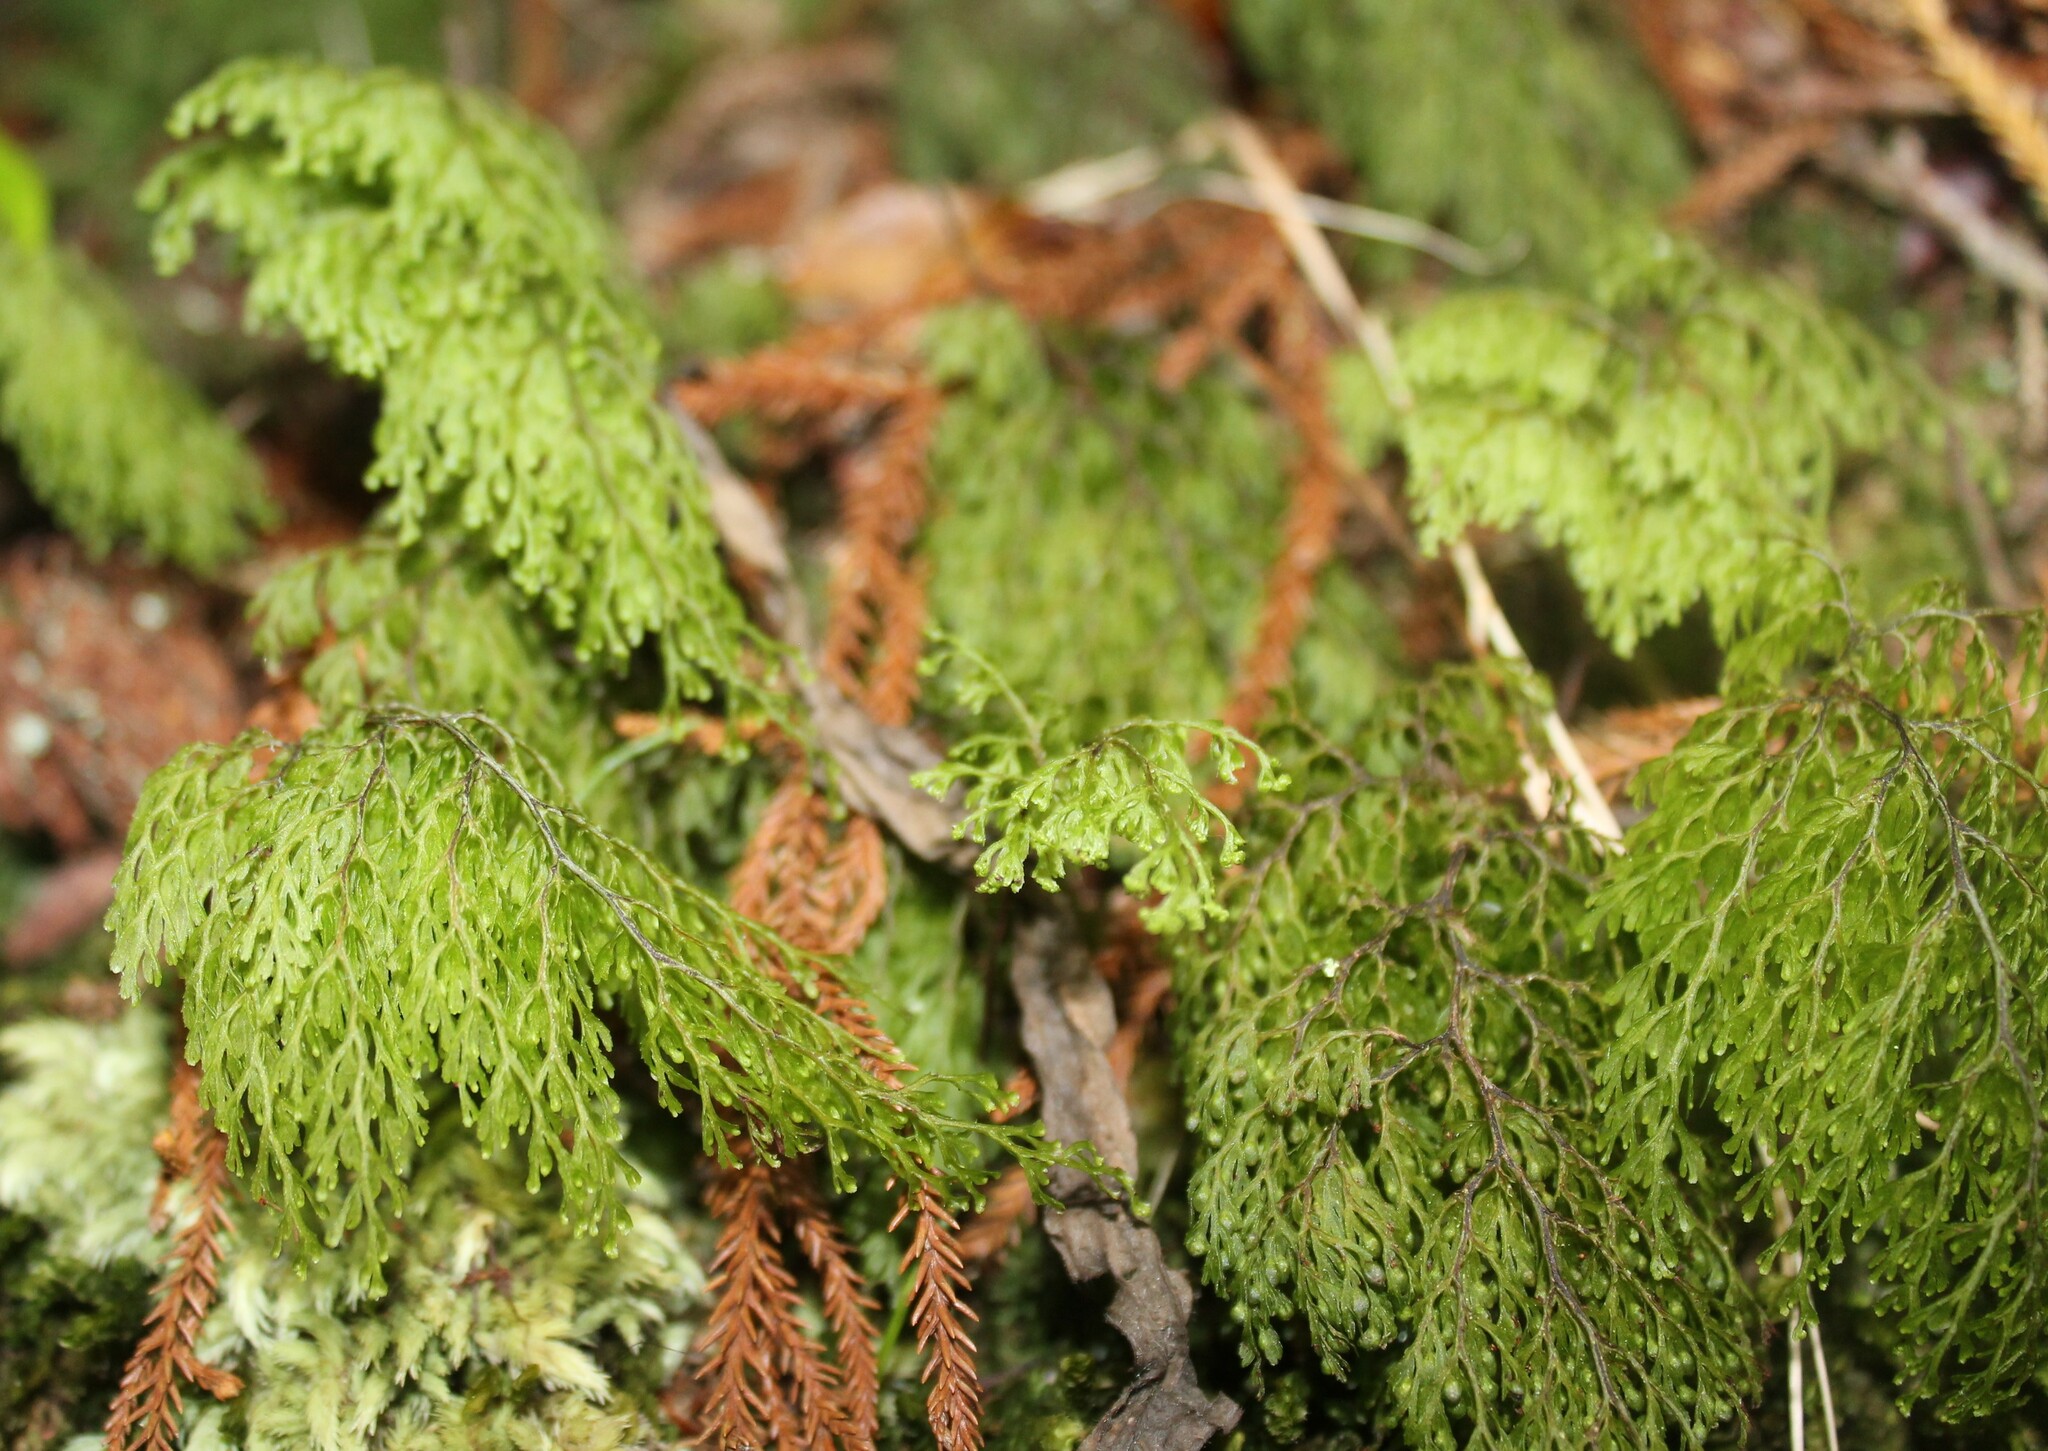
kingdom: Plantae
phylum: Tracheophyta
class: Polypodiopsida
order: Hymenophyllales
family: Hymenophyllaceae
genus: Hymenophyllum
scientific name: Hymenophyllum bivalve
